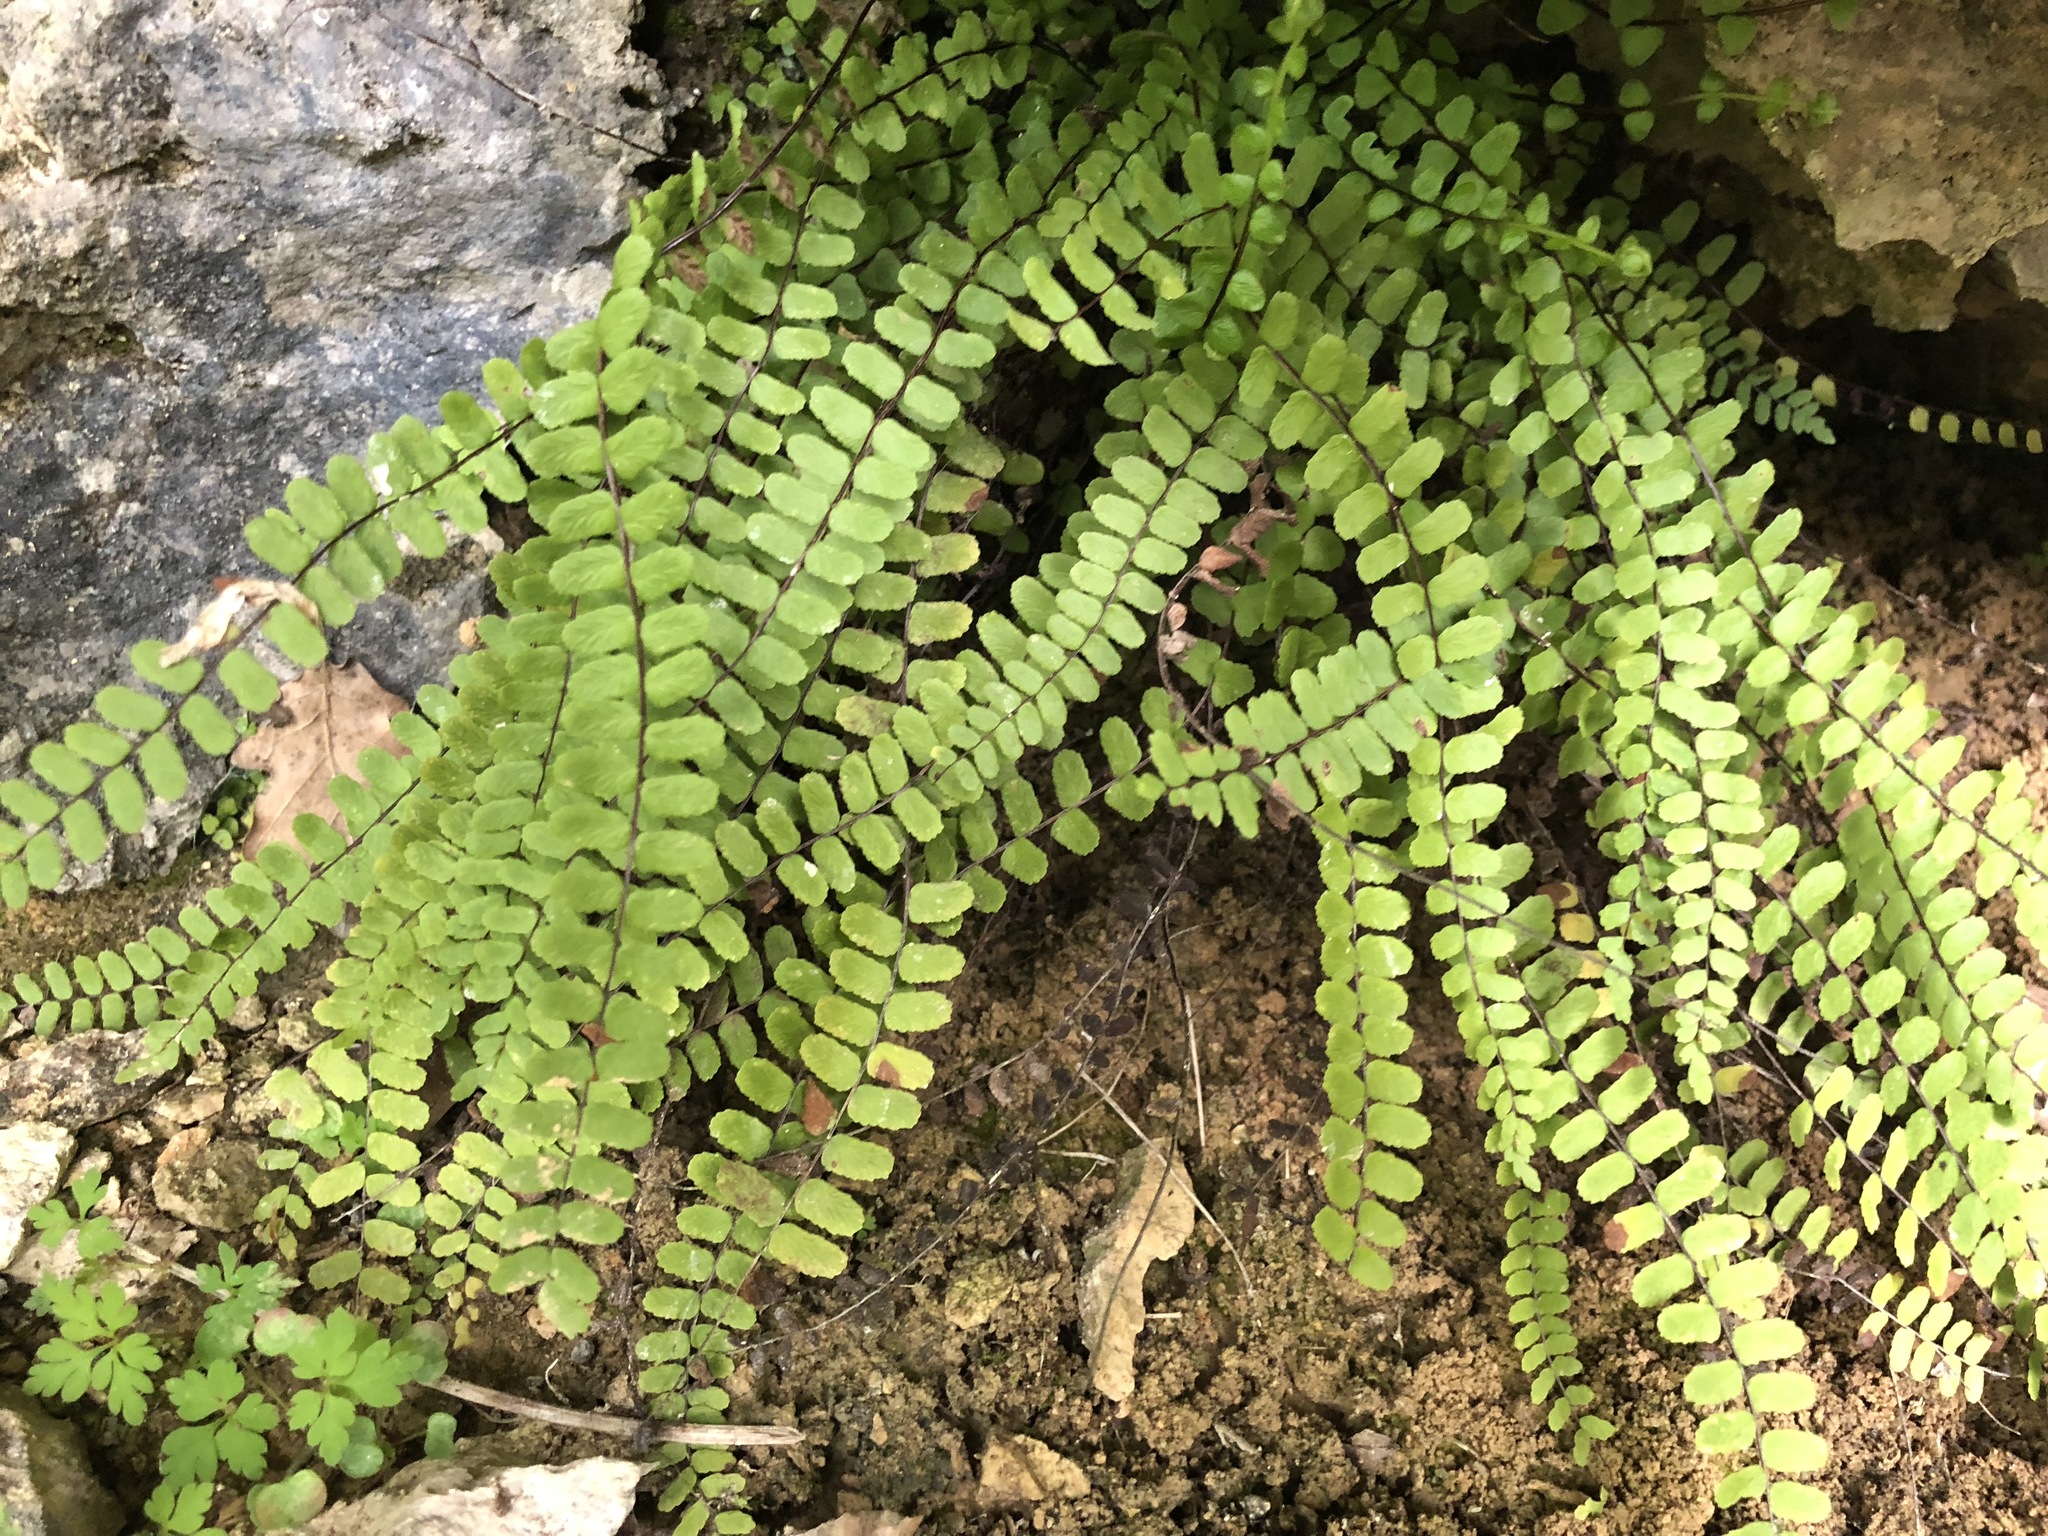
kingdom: Plantae
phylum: Tracheophyta
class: Polypodiopsida
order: Polypodiales
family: Aspleniaceae
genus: Asplenium
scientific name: Asplenium trichomanes
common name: Maidenhair spleenwort
